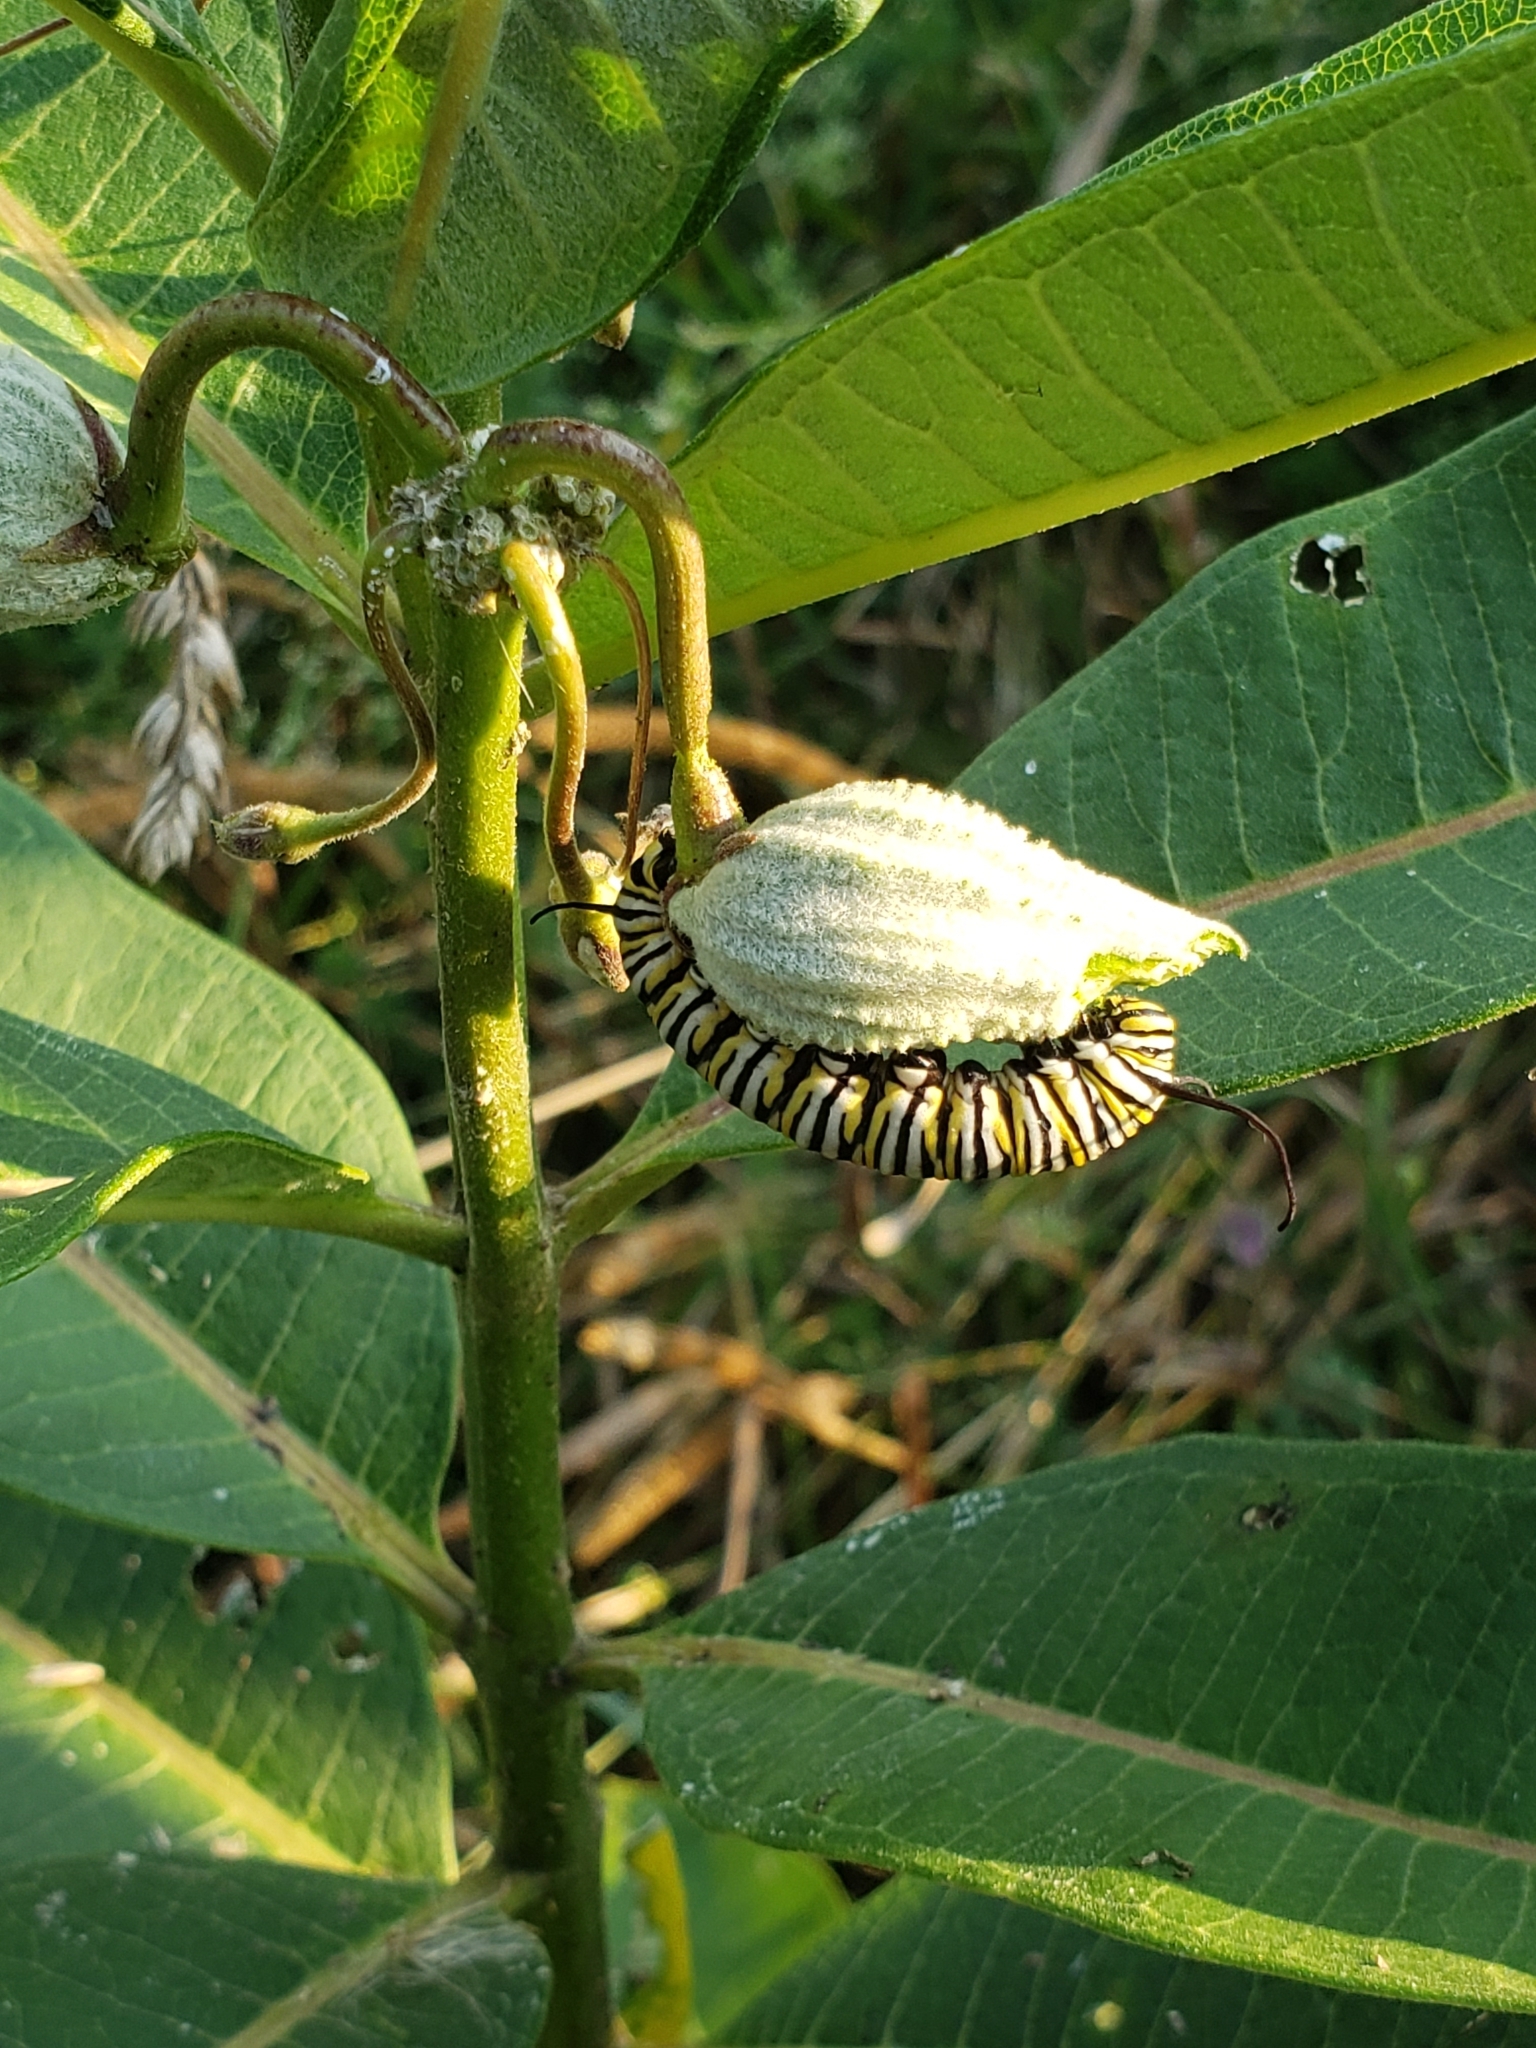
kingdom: Animalia
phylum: Arthropoda
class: Insecta
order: Lepidoptera
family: Nymphalidae
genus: Danaus
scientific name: Danaus plexippus
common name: Monarch
